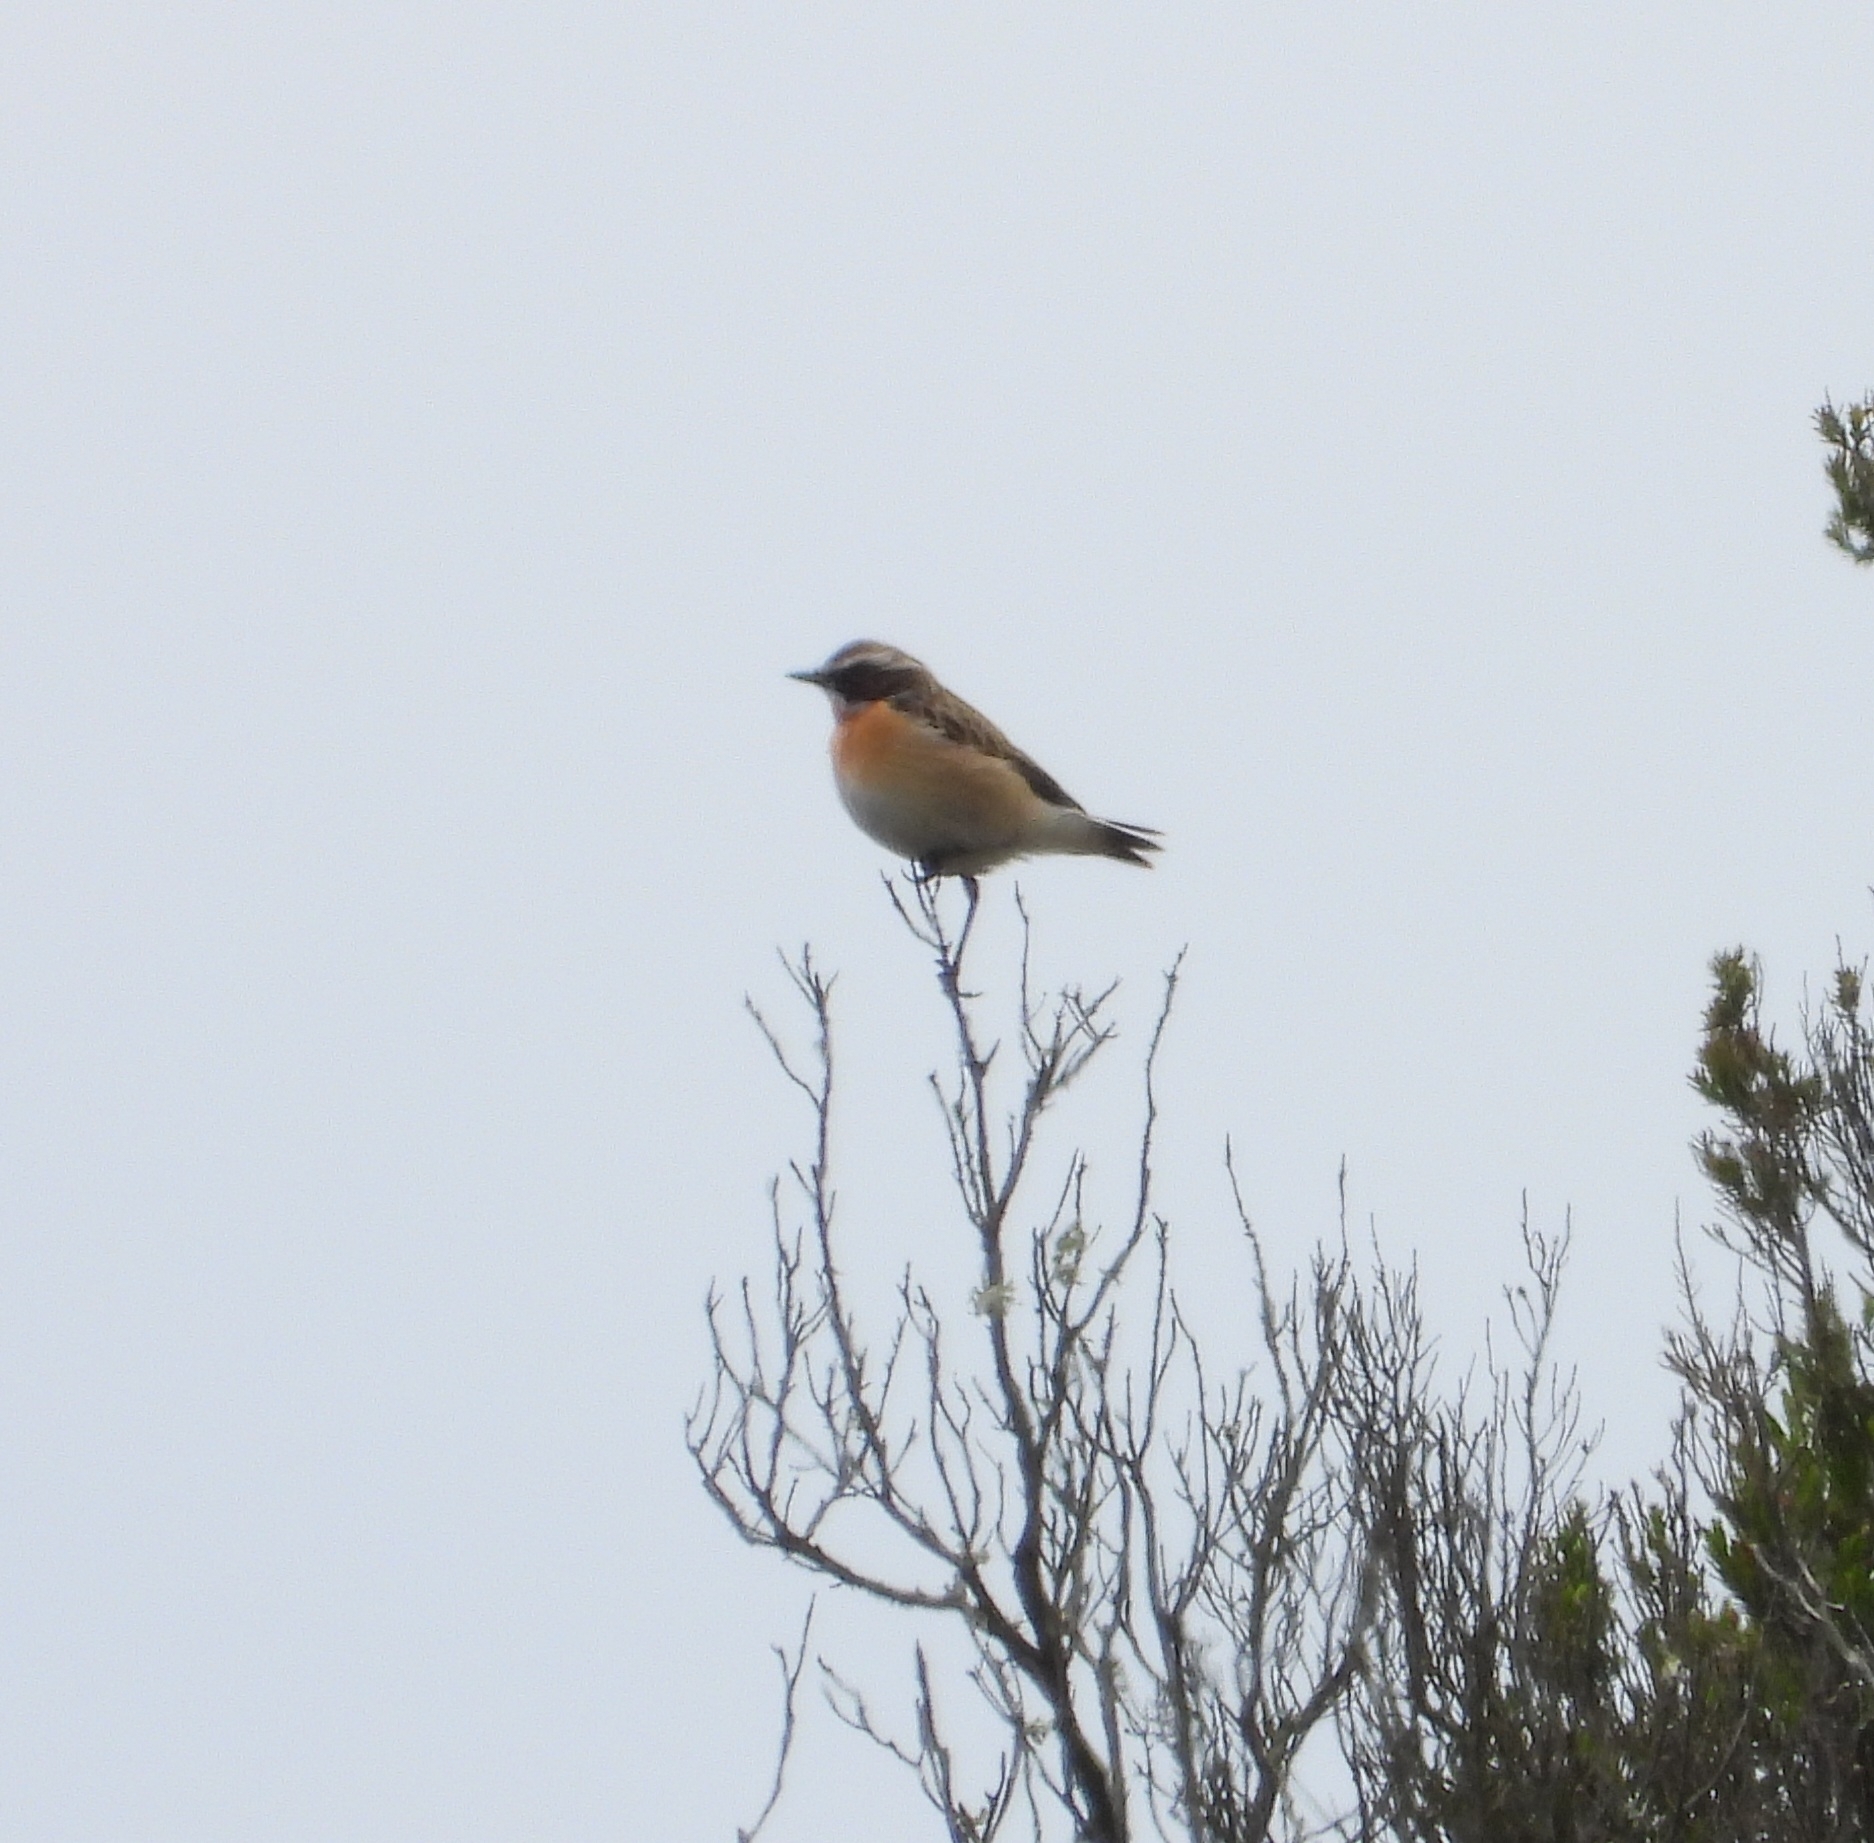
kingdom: Animalia
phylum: Chordata
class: Aves
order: Passeriformes
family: Muscicapidae
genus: Saxicola
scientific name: Saxicola rubetra
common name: Whinchat
